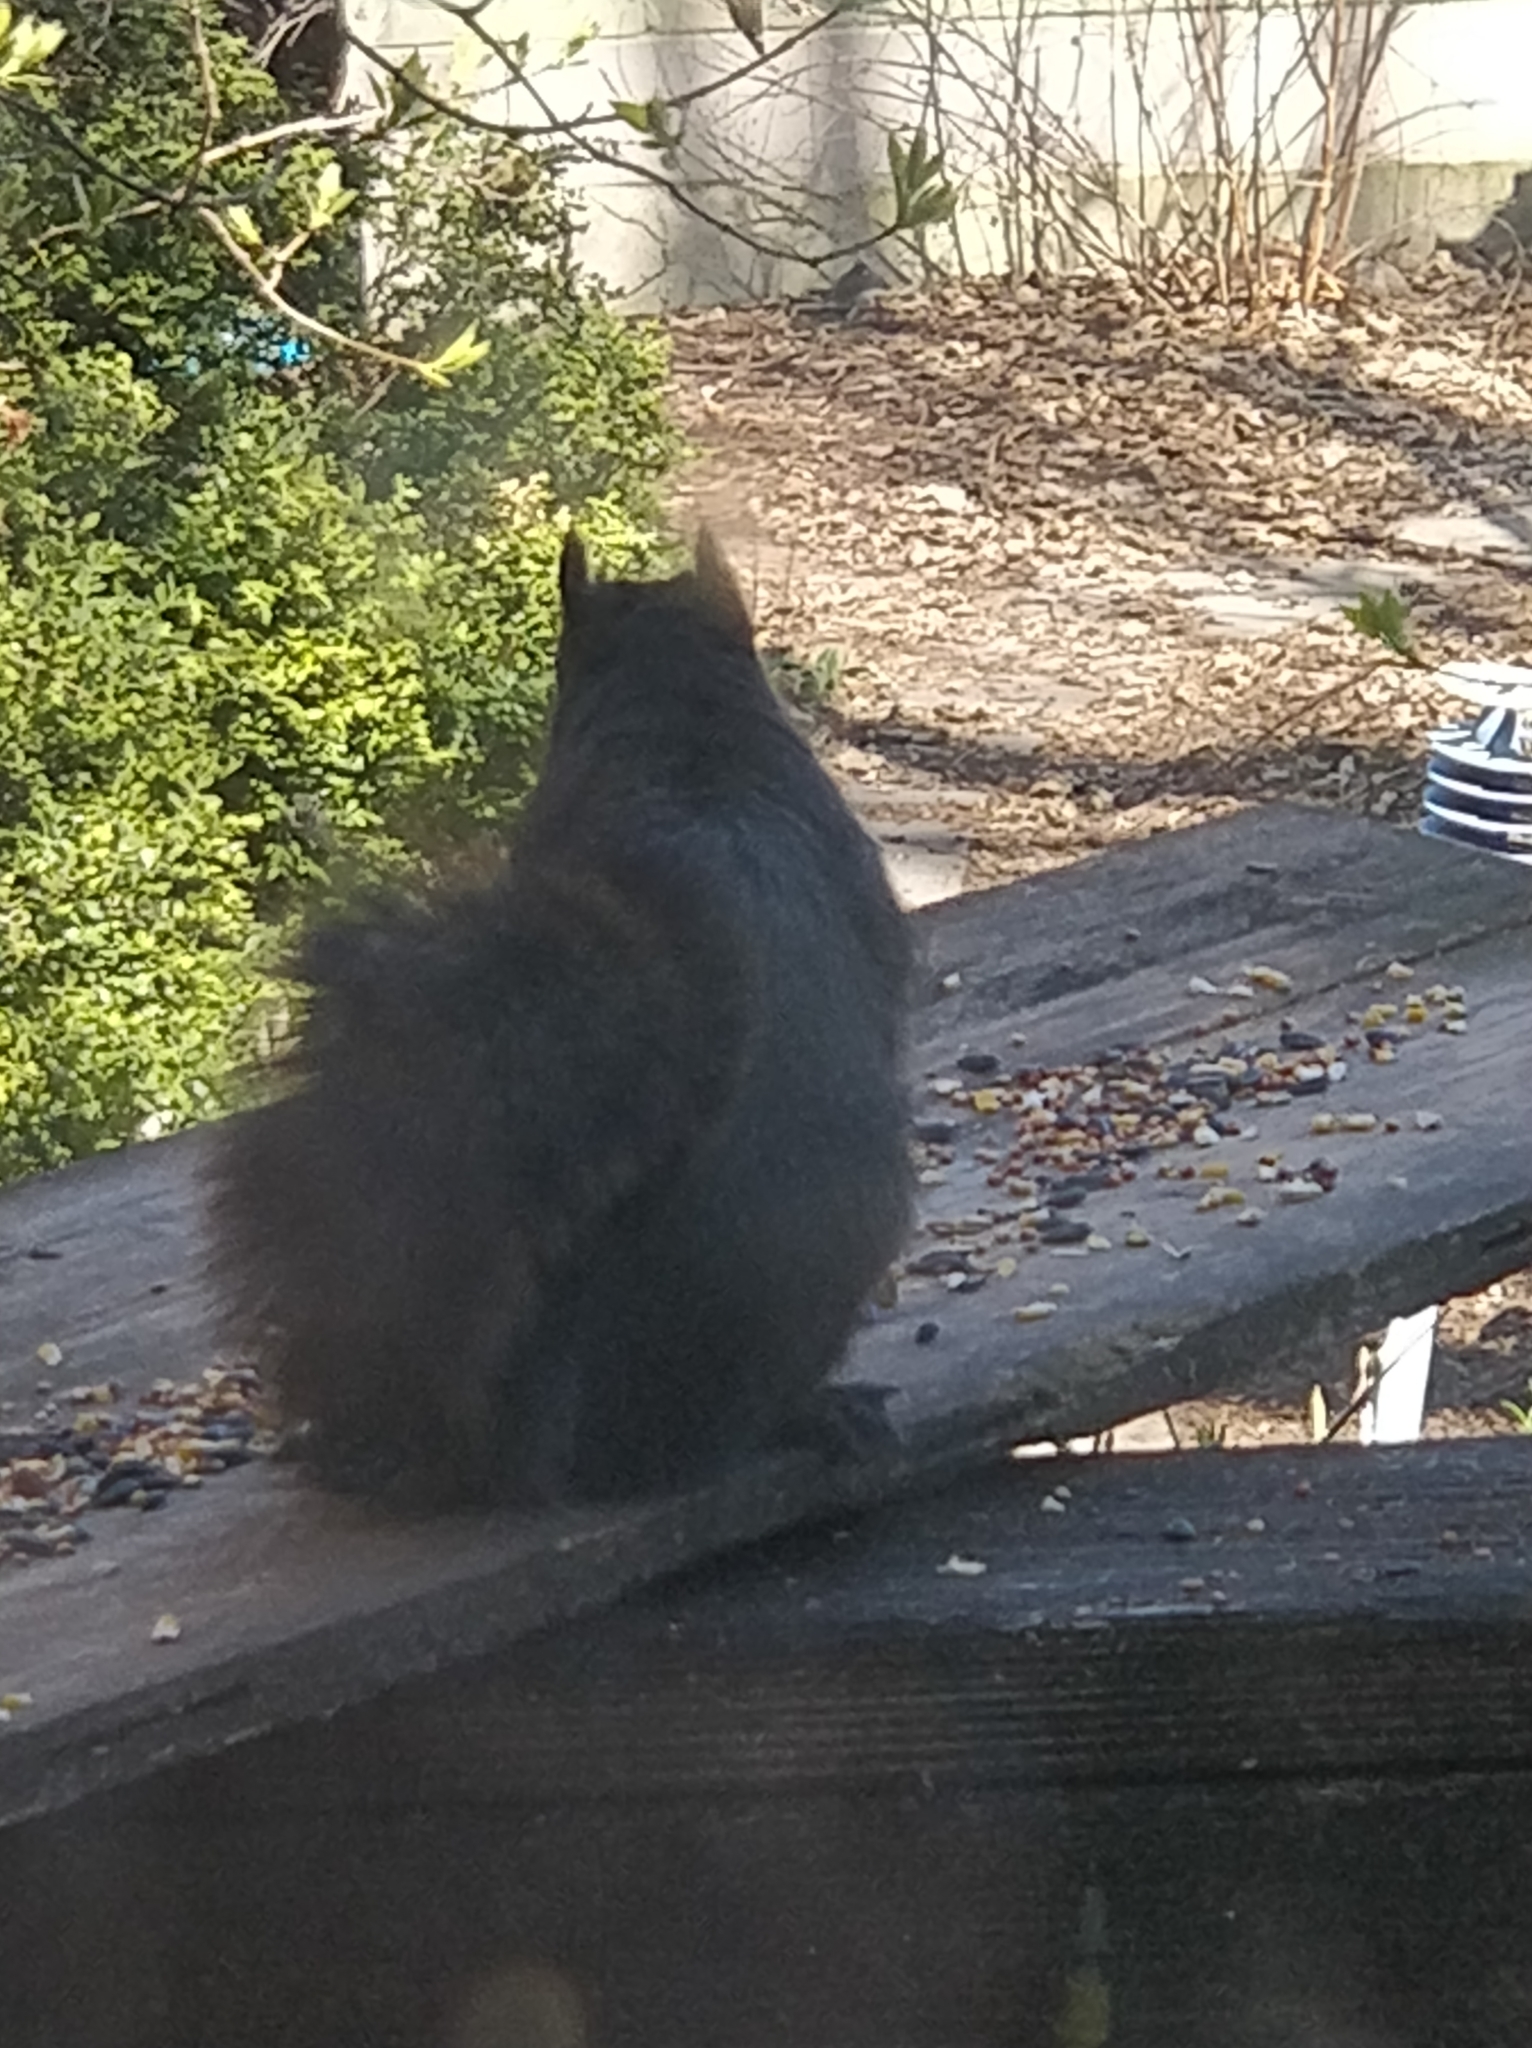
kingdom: Animalia
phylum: Chordata
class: Mammalia
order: Rodentia
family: Sciuridae
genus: Sciurus
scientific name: Sciurus carolinensis
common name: Eastern gray squirrel
